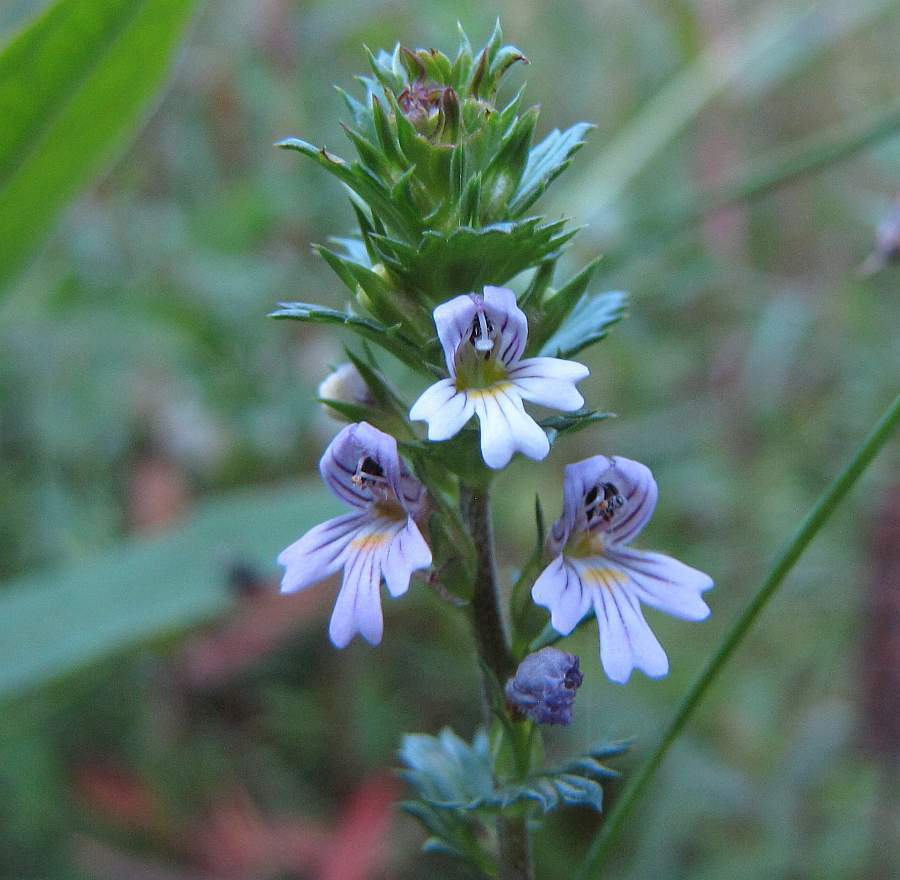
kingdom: Plantae
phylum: Tracheophyta
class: Magnoliopsida
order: Lamiales
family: Orobanchaceae
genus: Euphrasia
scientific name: Euphrasia stricta
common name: Drug eyebright
